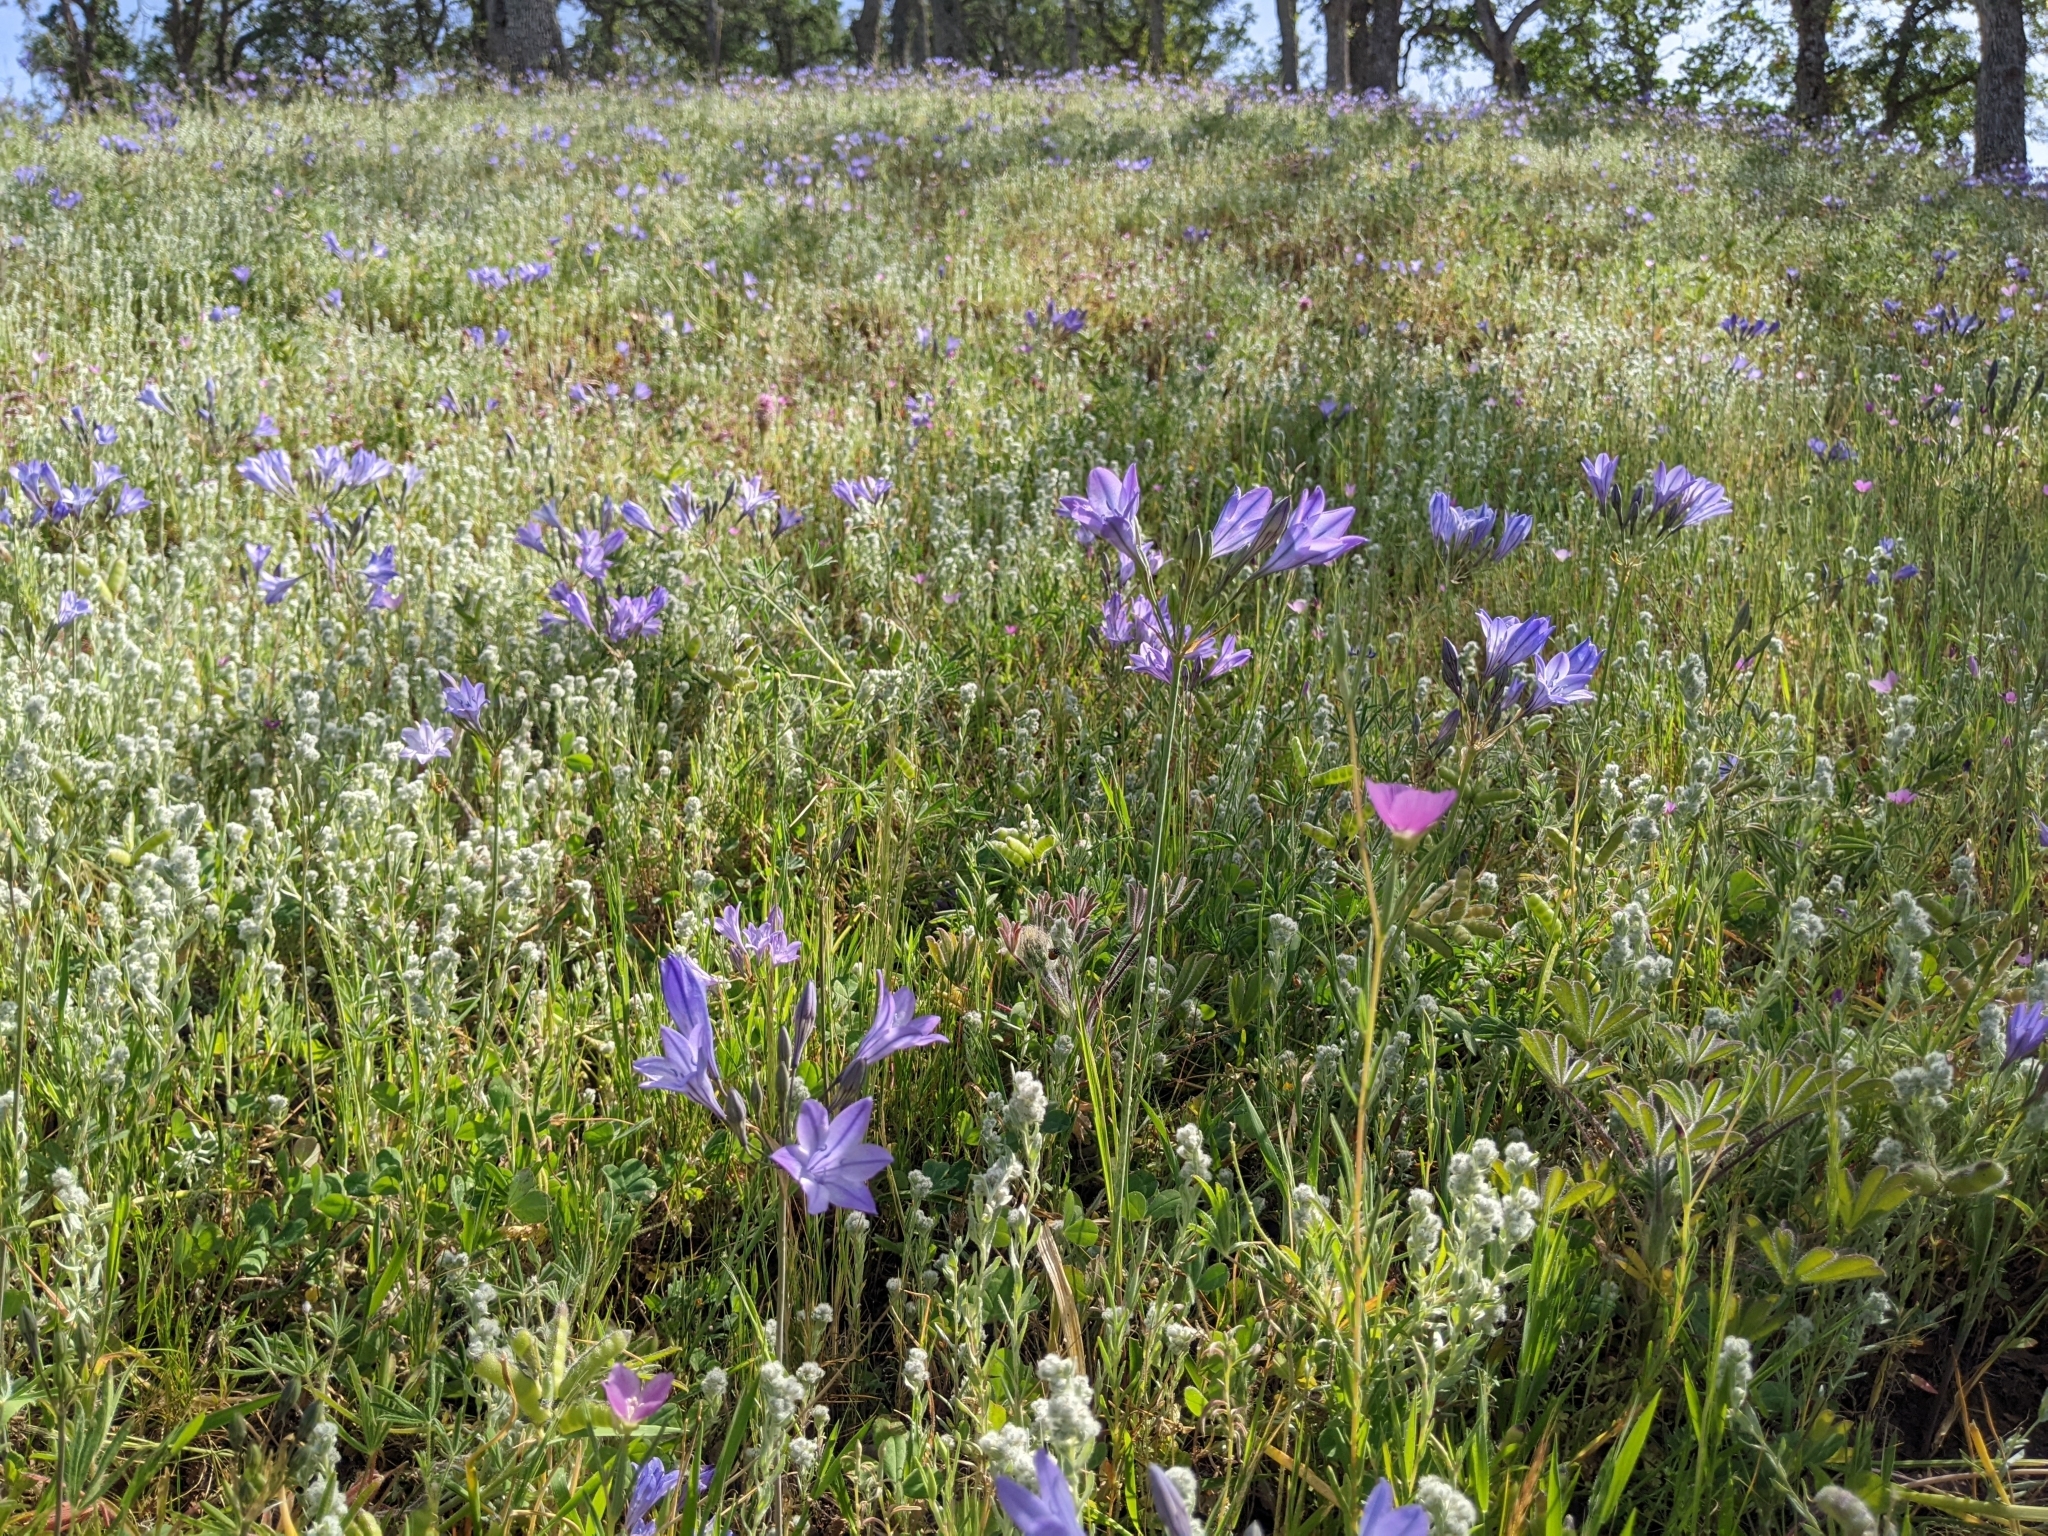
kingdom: Plantae
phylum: Tracheophyta
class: Liliopsida
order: Asparagales
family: Asparagaceae
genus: Triteleia
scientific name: Triteleia laxa
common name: Triplet-lily
